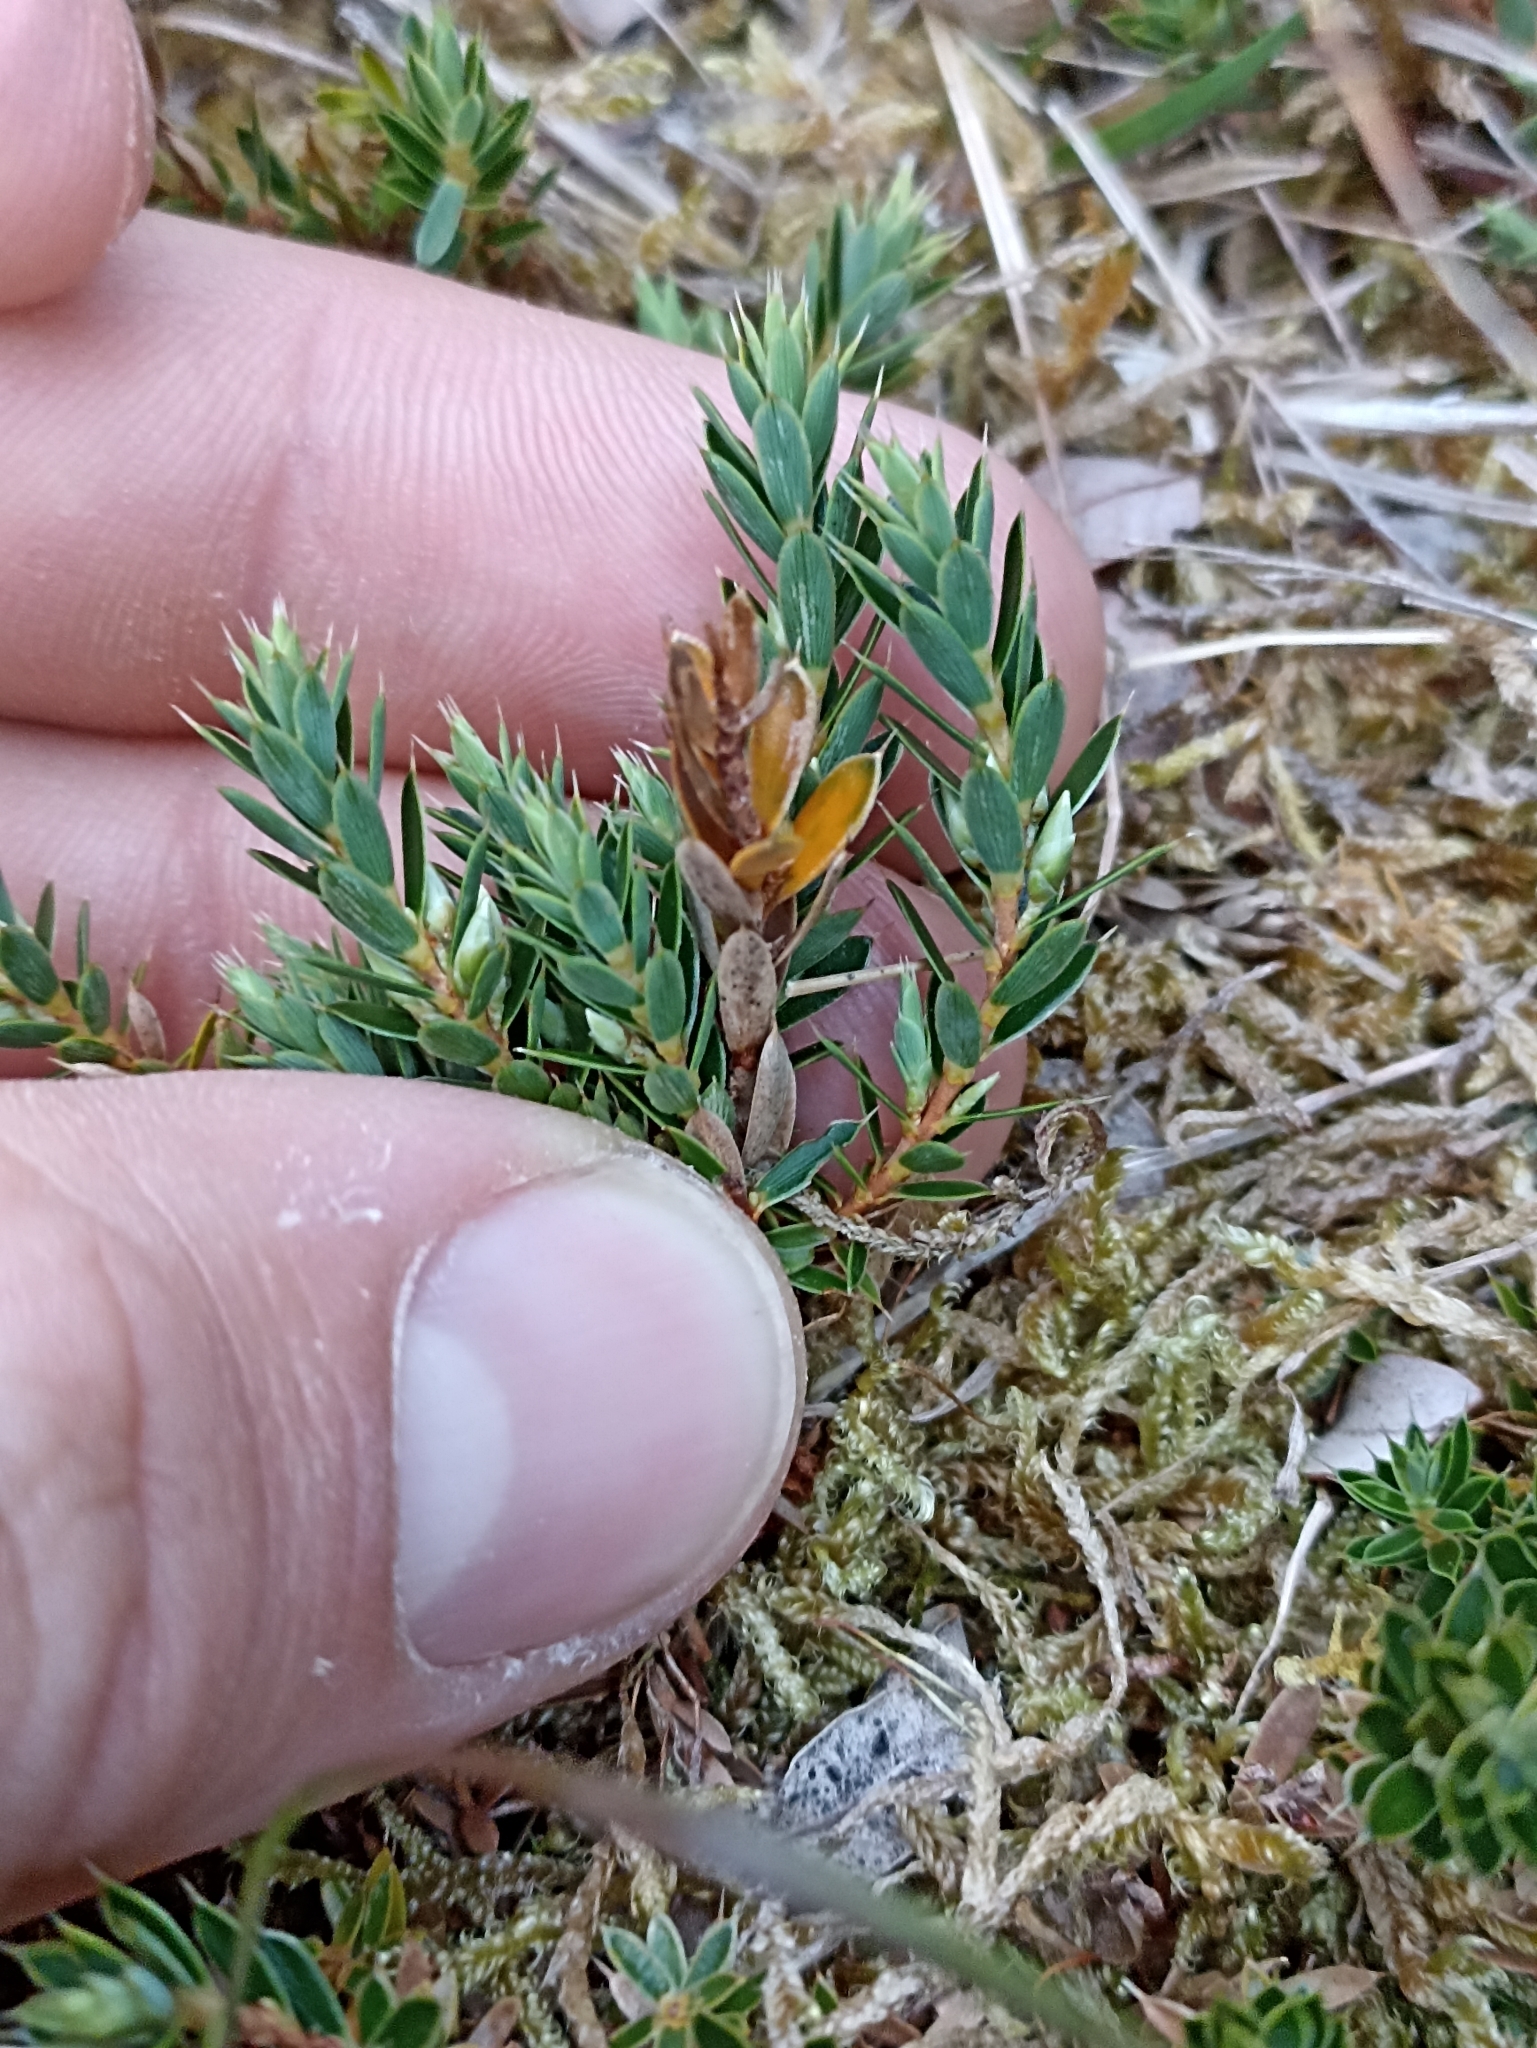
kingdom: Plantae
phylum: Tracheophyta
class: Magnoliopsida
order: Ericales
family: Ericaceae
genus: Styphelia
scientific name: Styphelia nesophila
